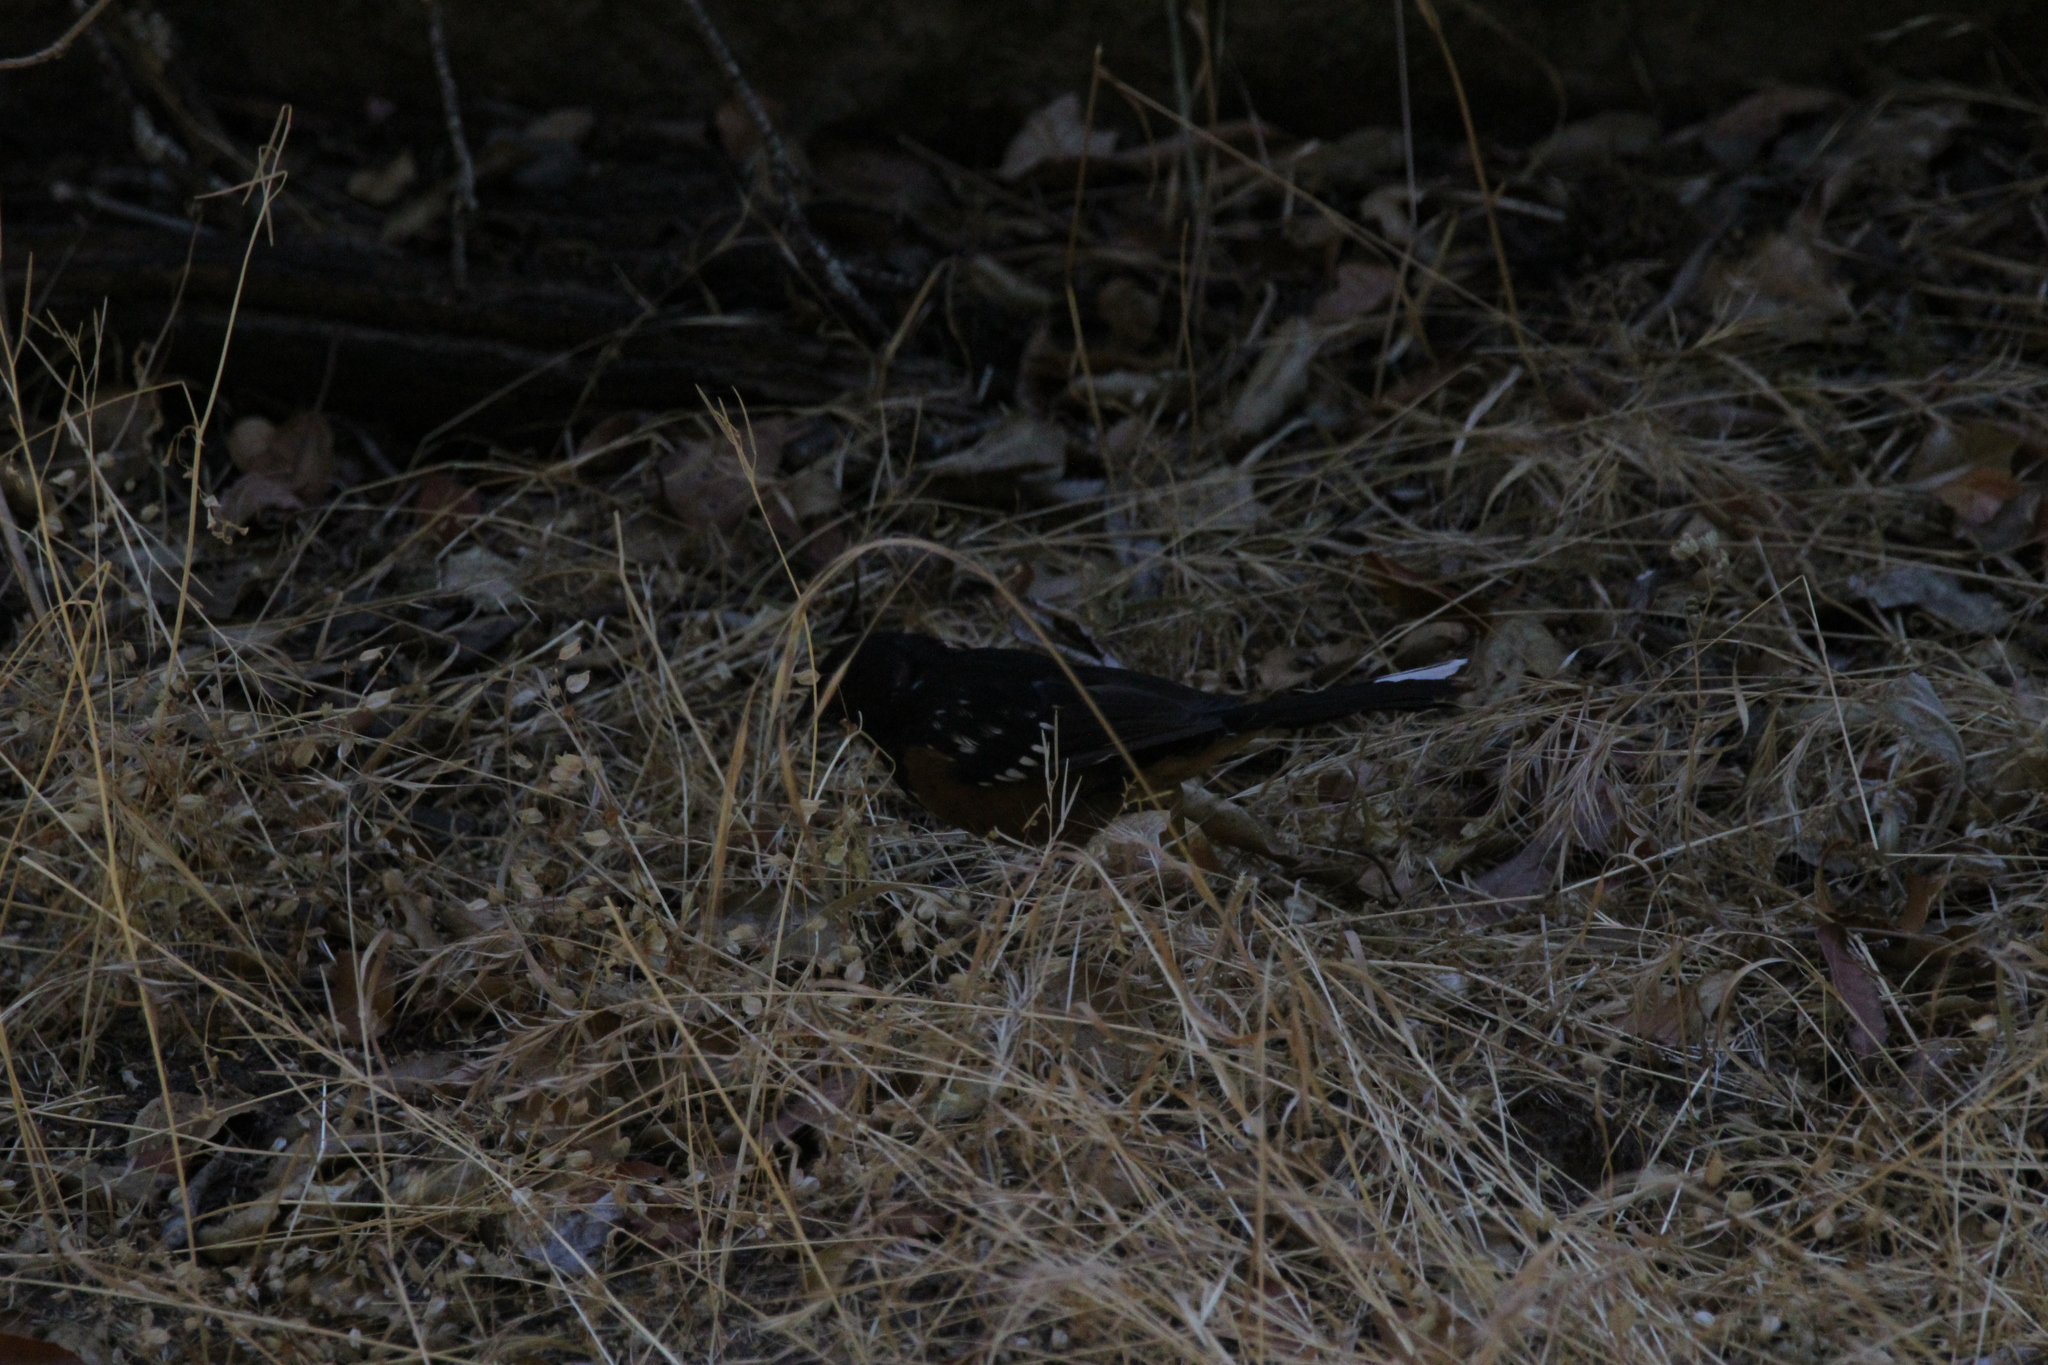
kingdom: Animalia
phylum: Chordata
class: Aves
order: Passeriformes
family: Passerellidae
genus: Pipilo
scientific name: Pipilo maculatus
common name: Spotted towhee
